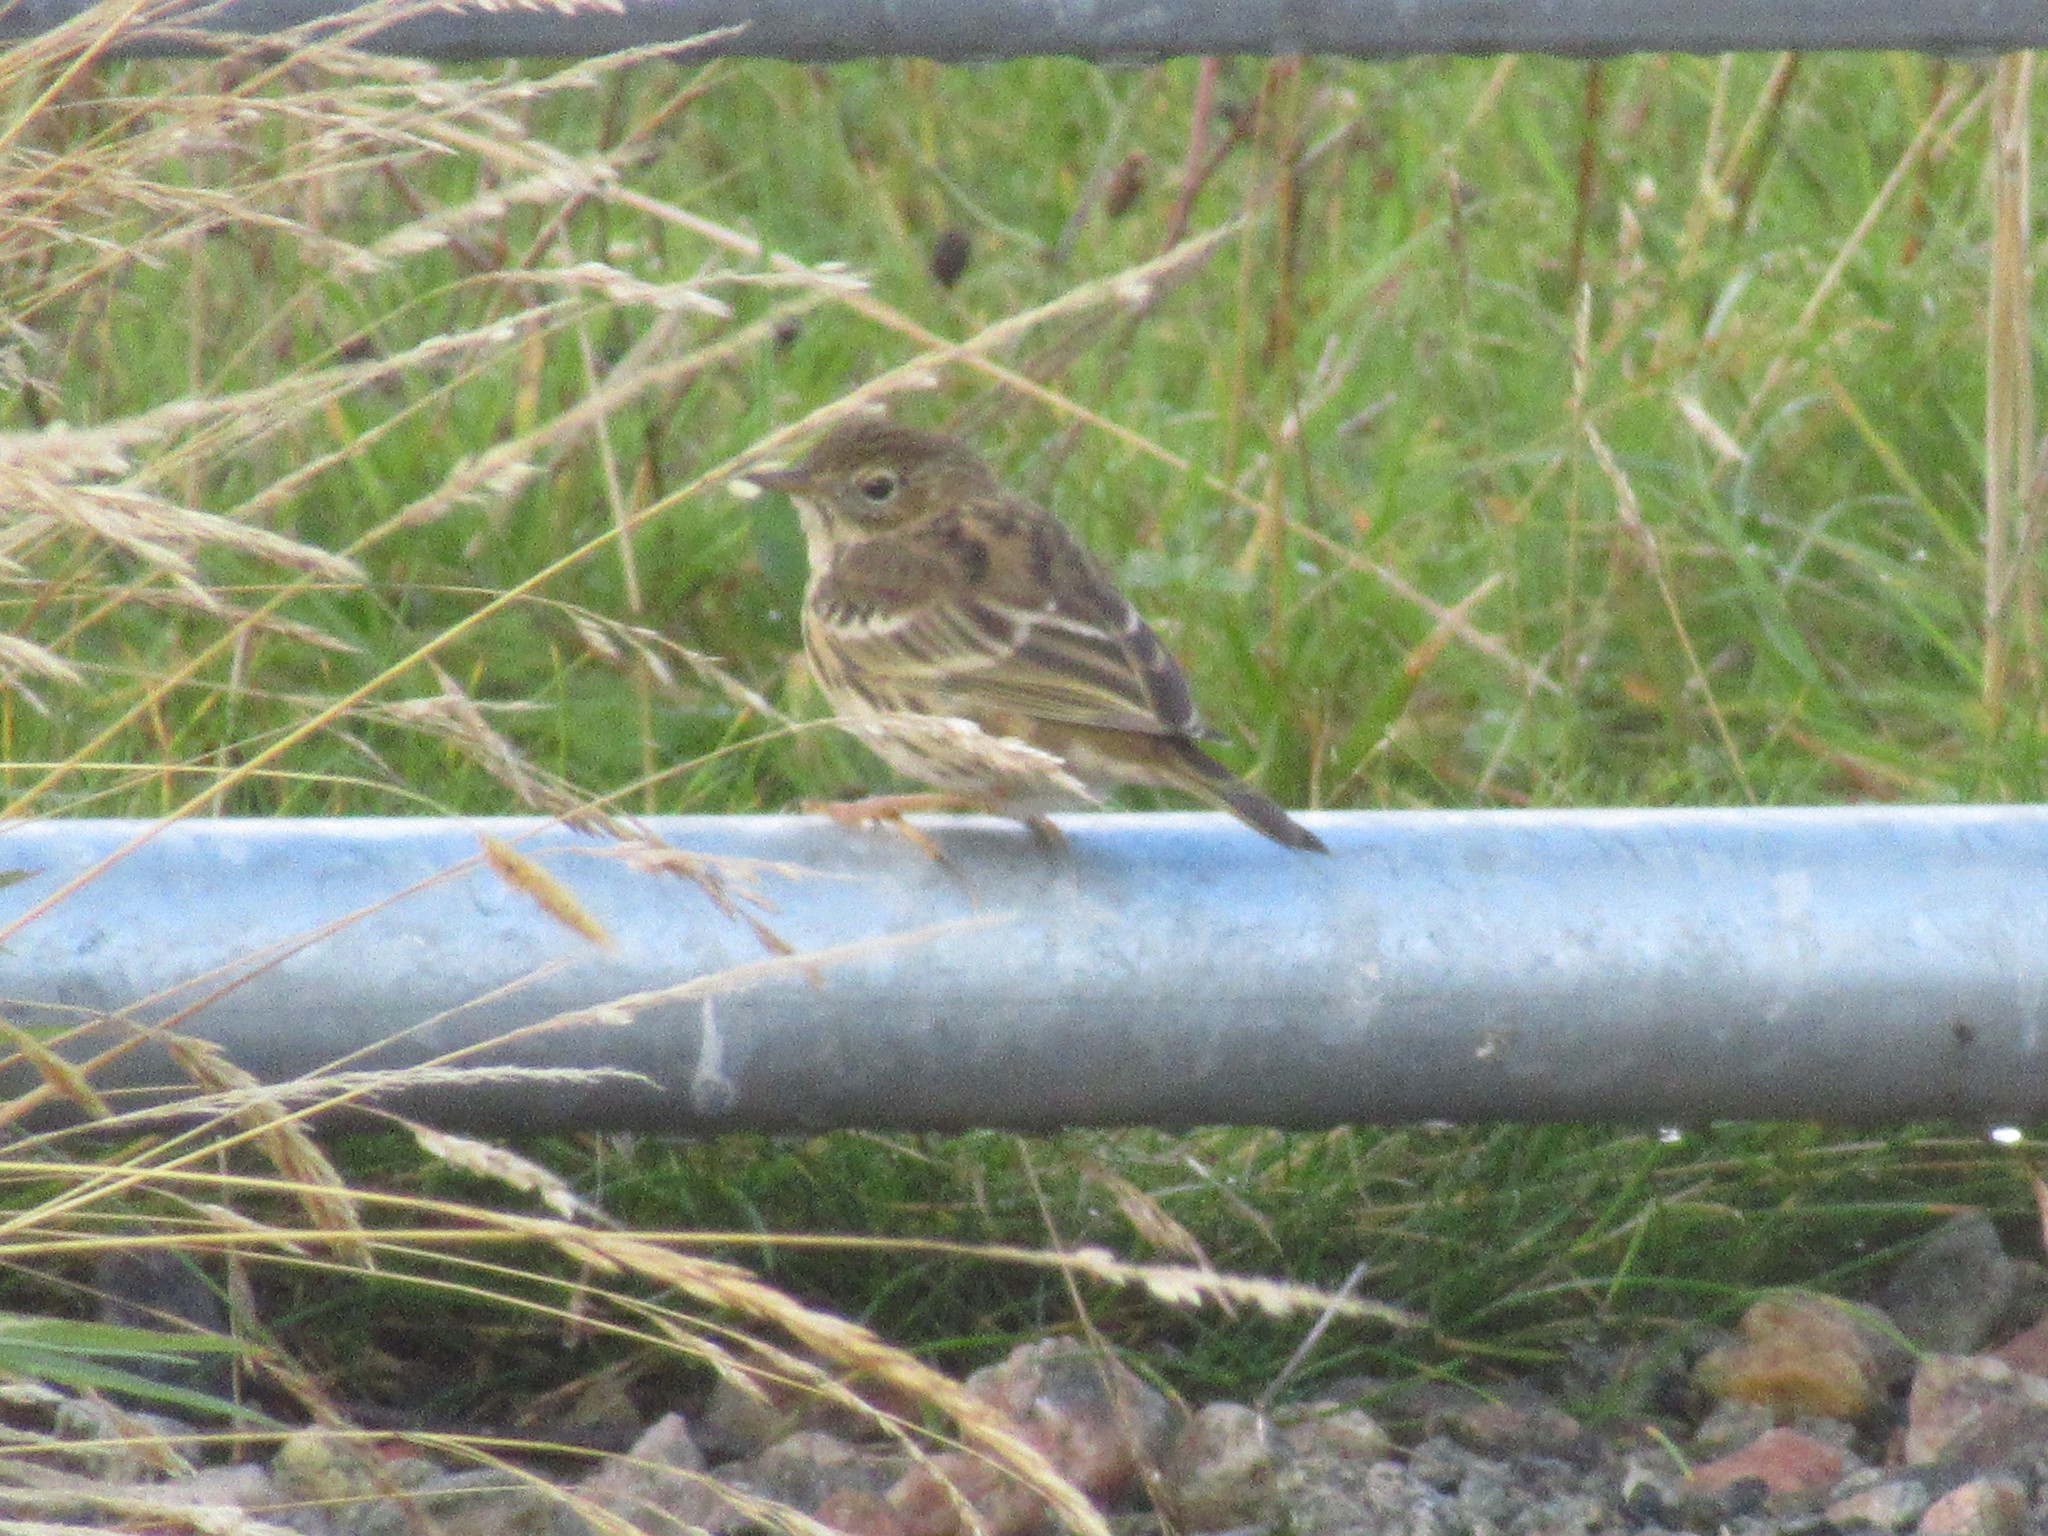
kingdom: Animalia
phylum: Chordata
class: Aves
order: Passeriformes
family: Motacillidae
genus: Anthus
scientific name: Anthus pratensis
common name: Meadow pipit
